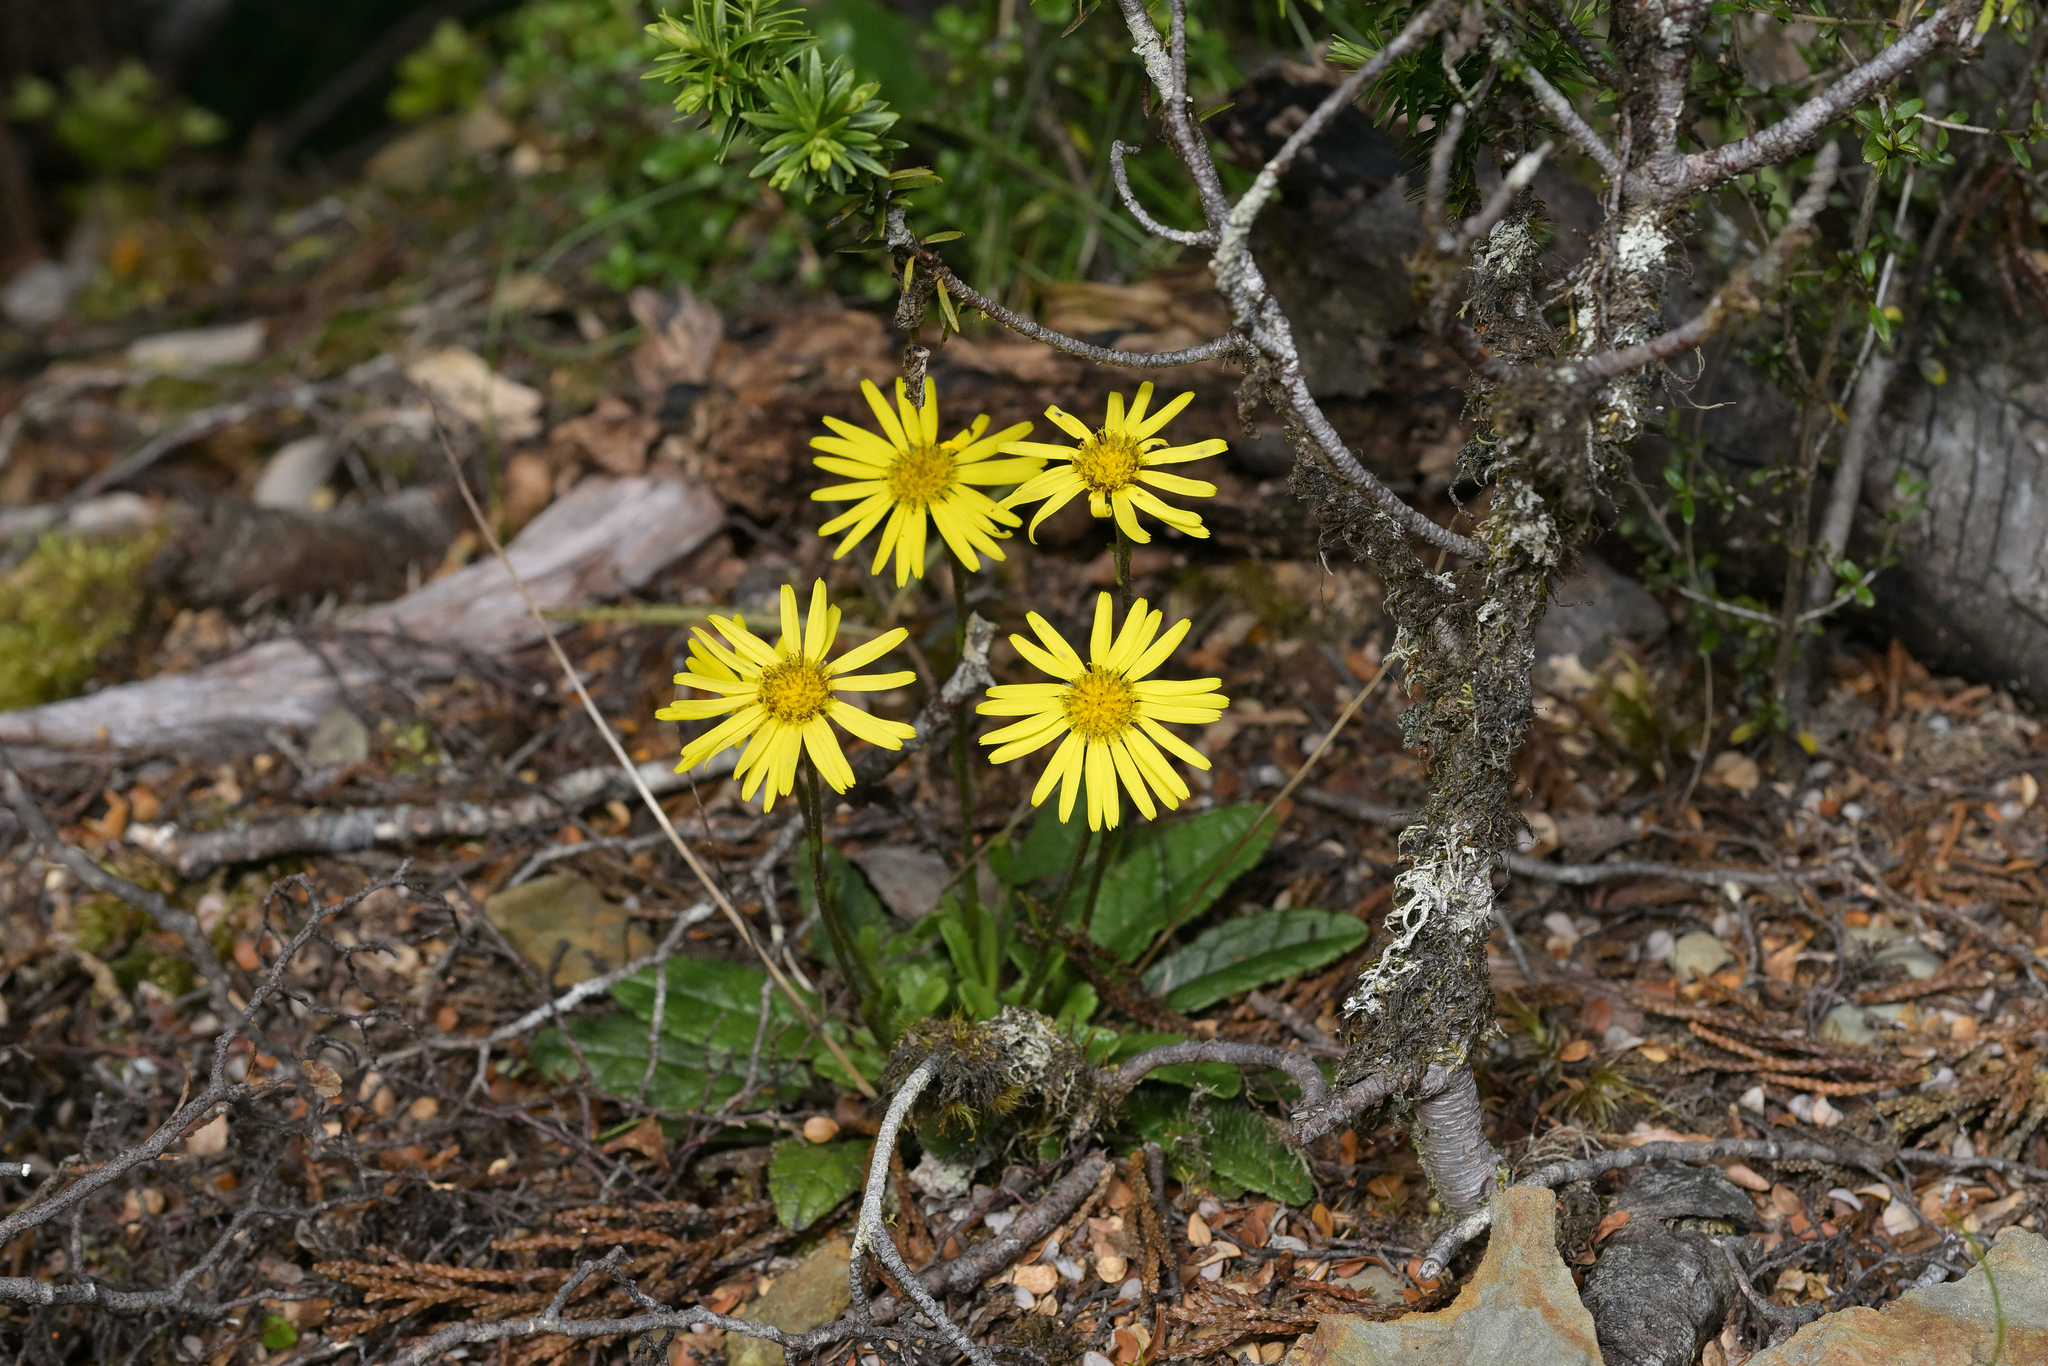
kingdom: Plantae
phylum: Tracheophyta
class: Magnoliopsida
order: Asterales
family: Asteraceae
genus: Brachyglottis
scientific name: Brachyglottis bellidioides
